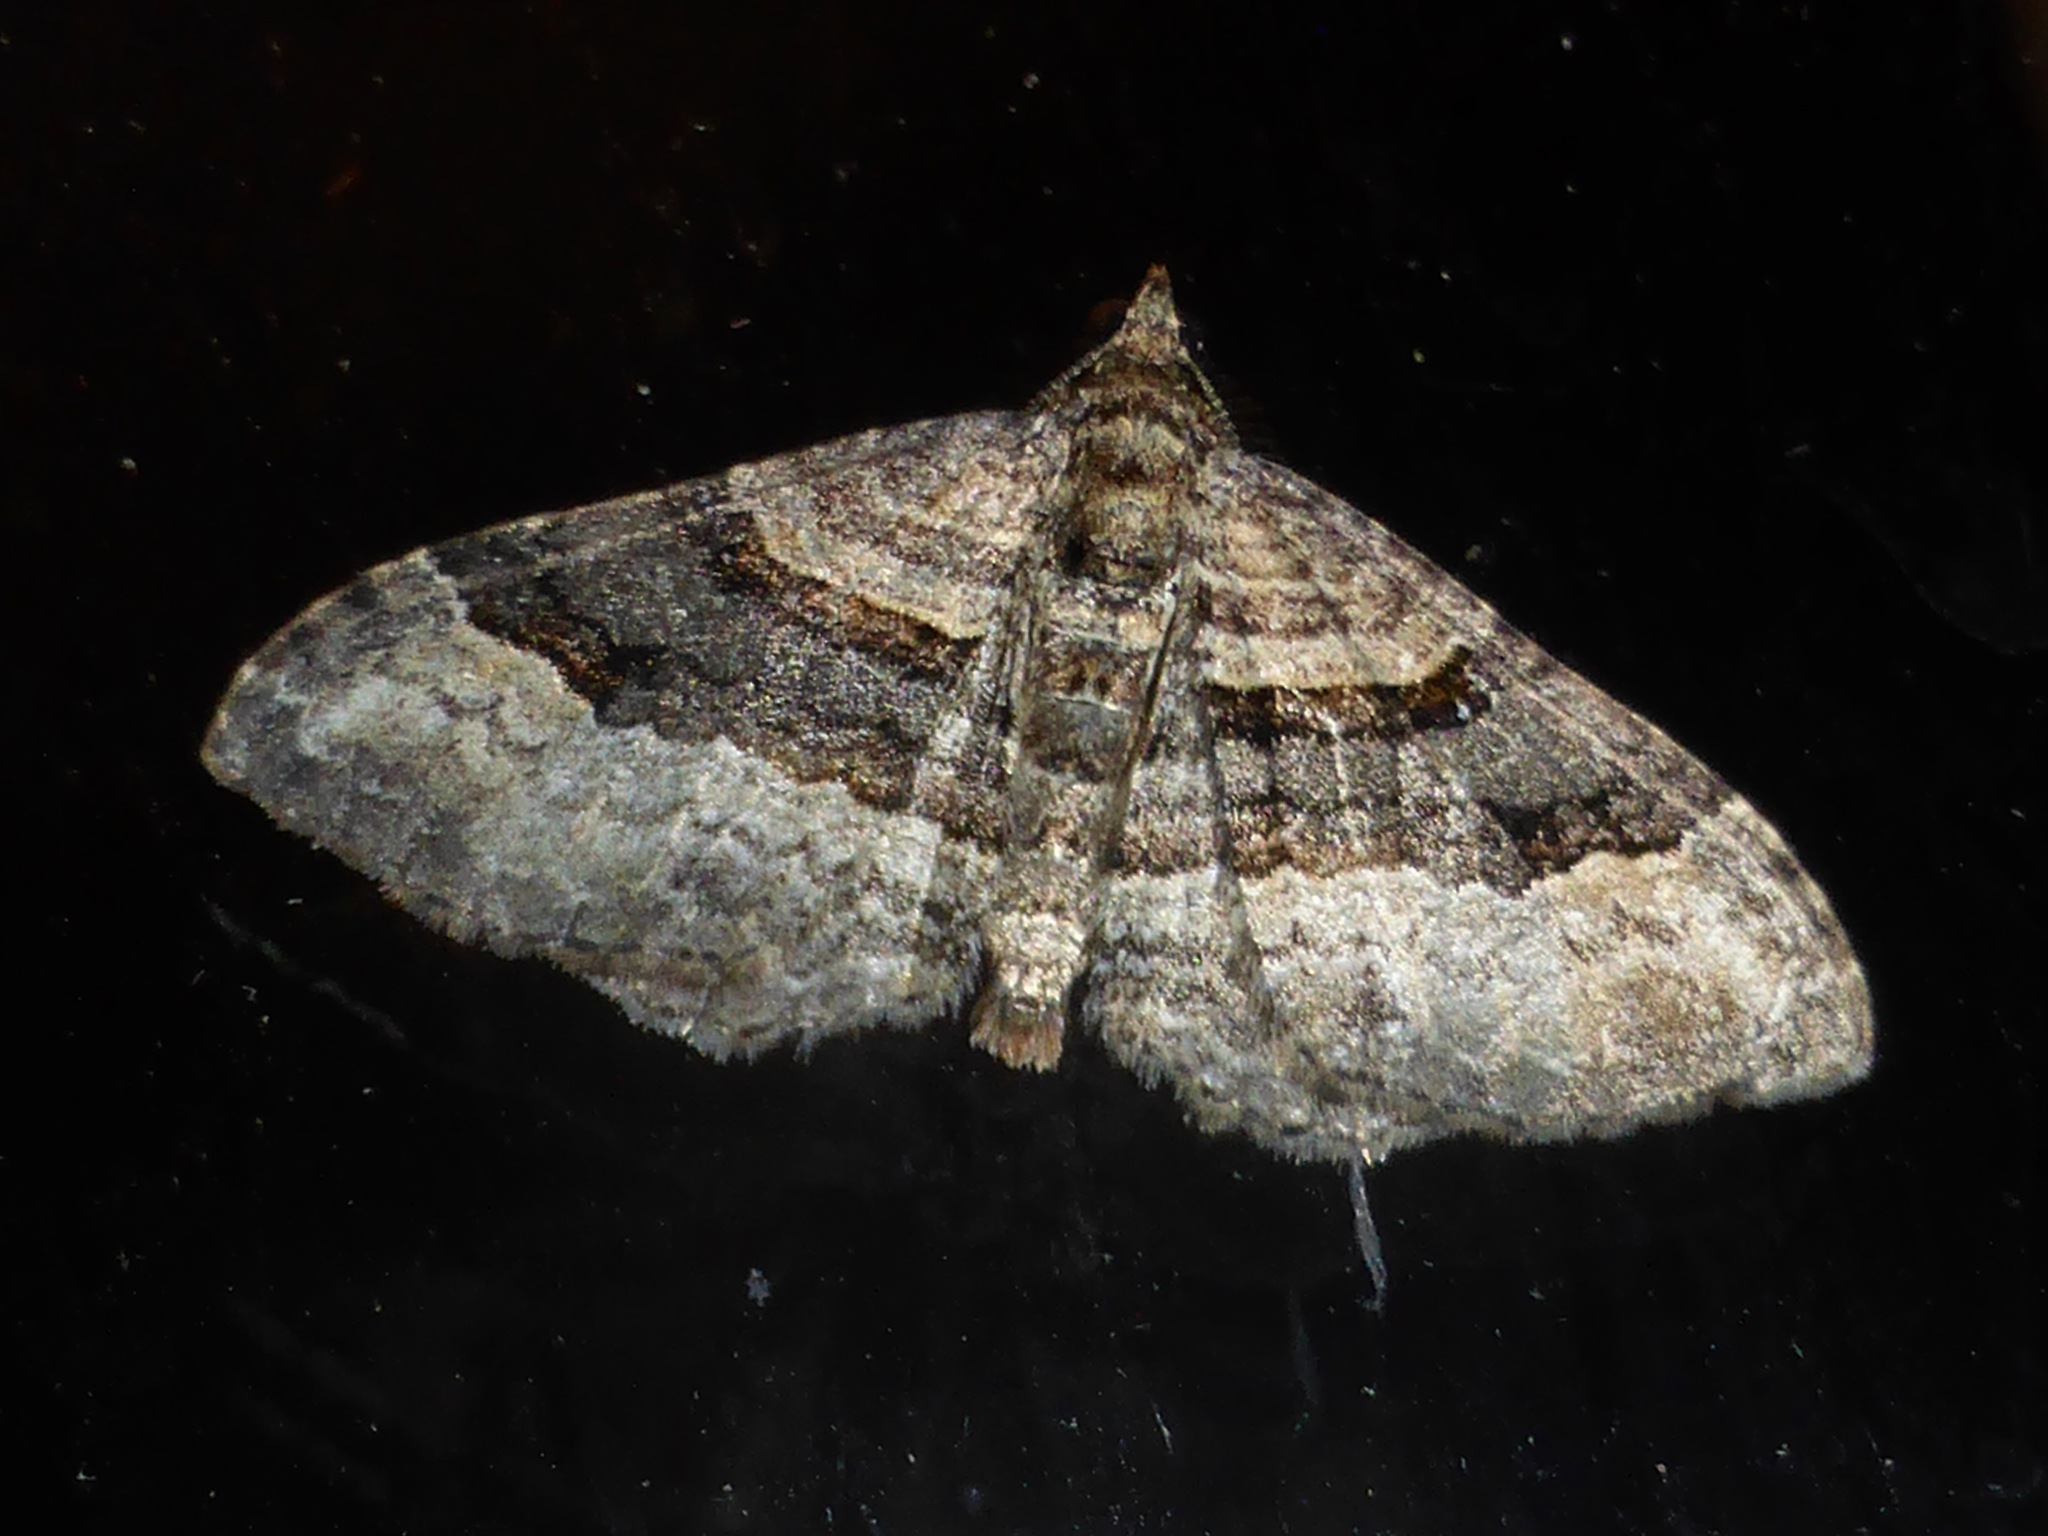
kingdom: Animalia
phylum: Arthropoda
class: Insecta
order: Lepidoptera
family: Geometridae
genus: Epyaxa
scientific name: Epyaxa lucidata
